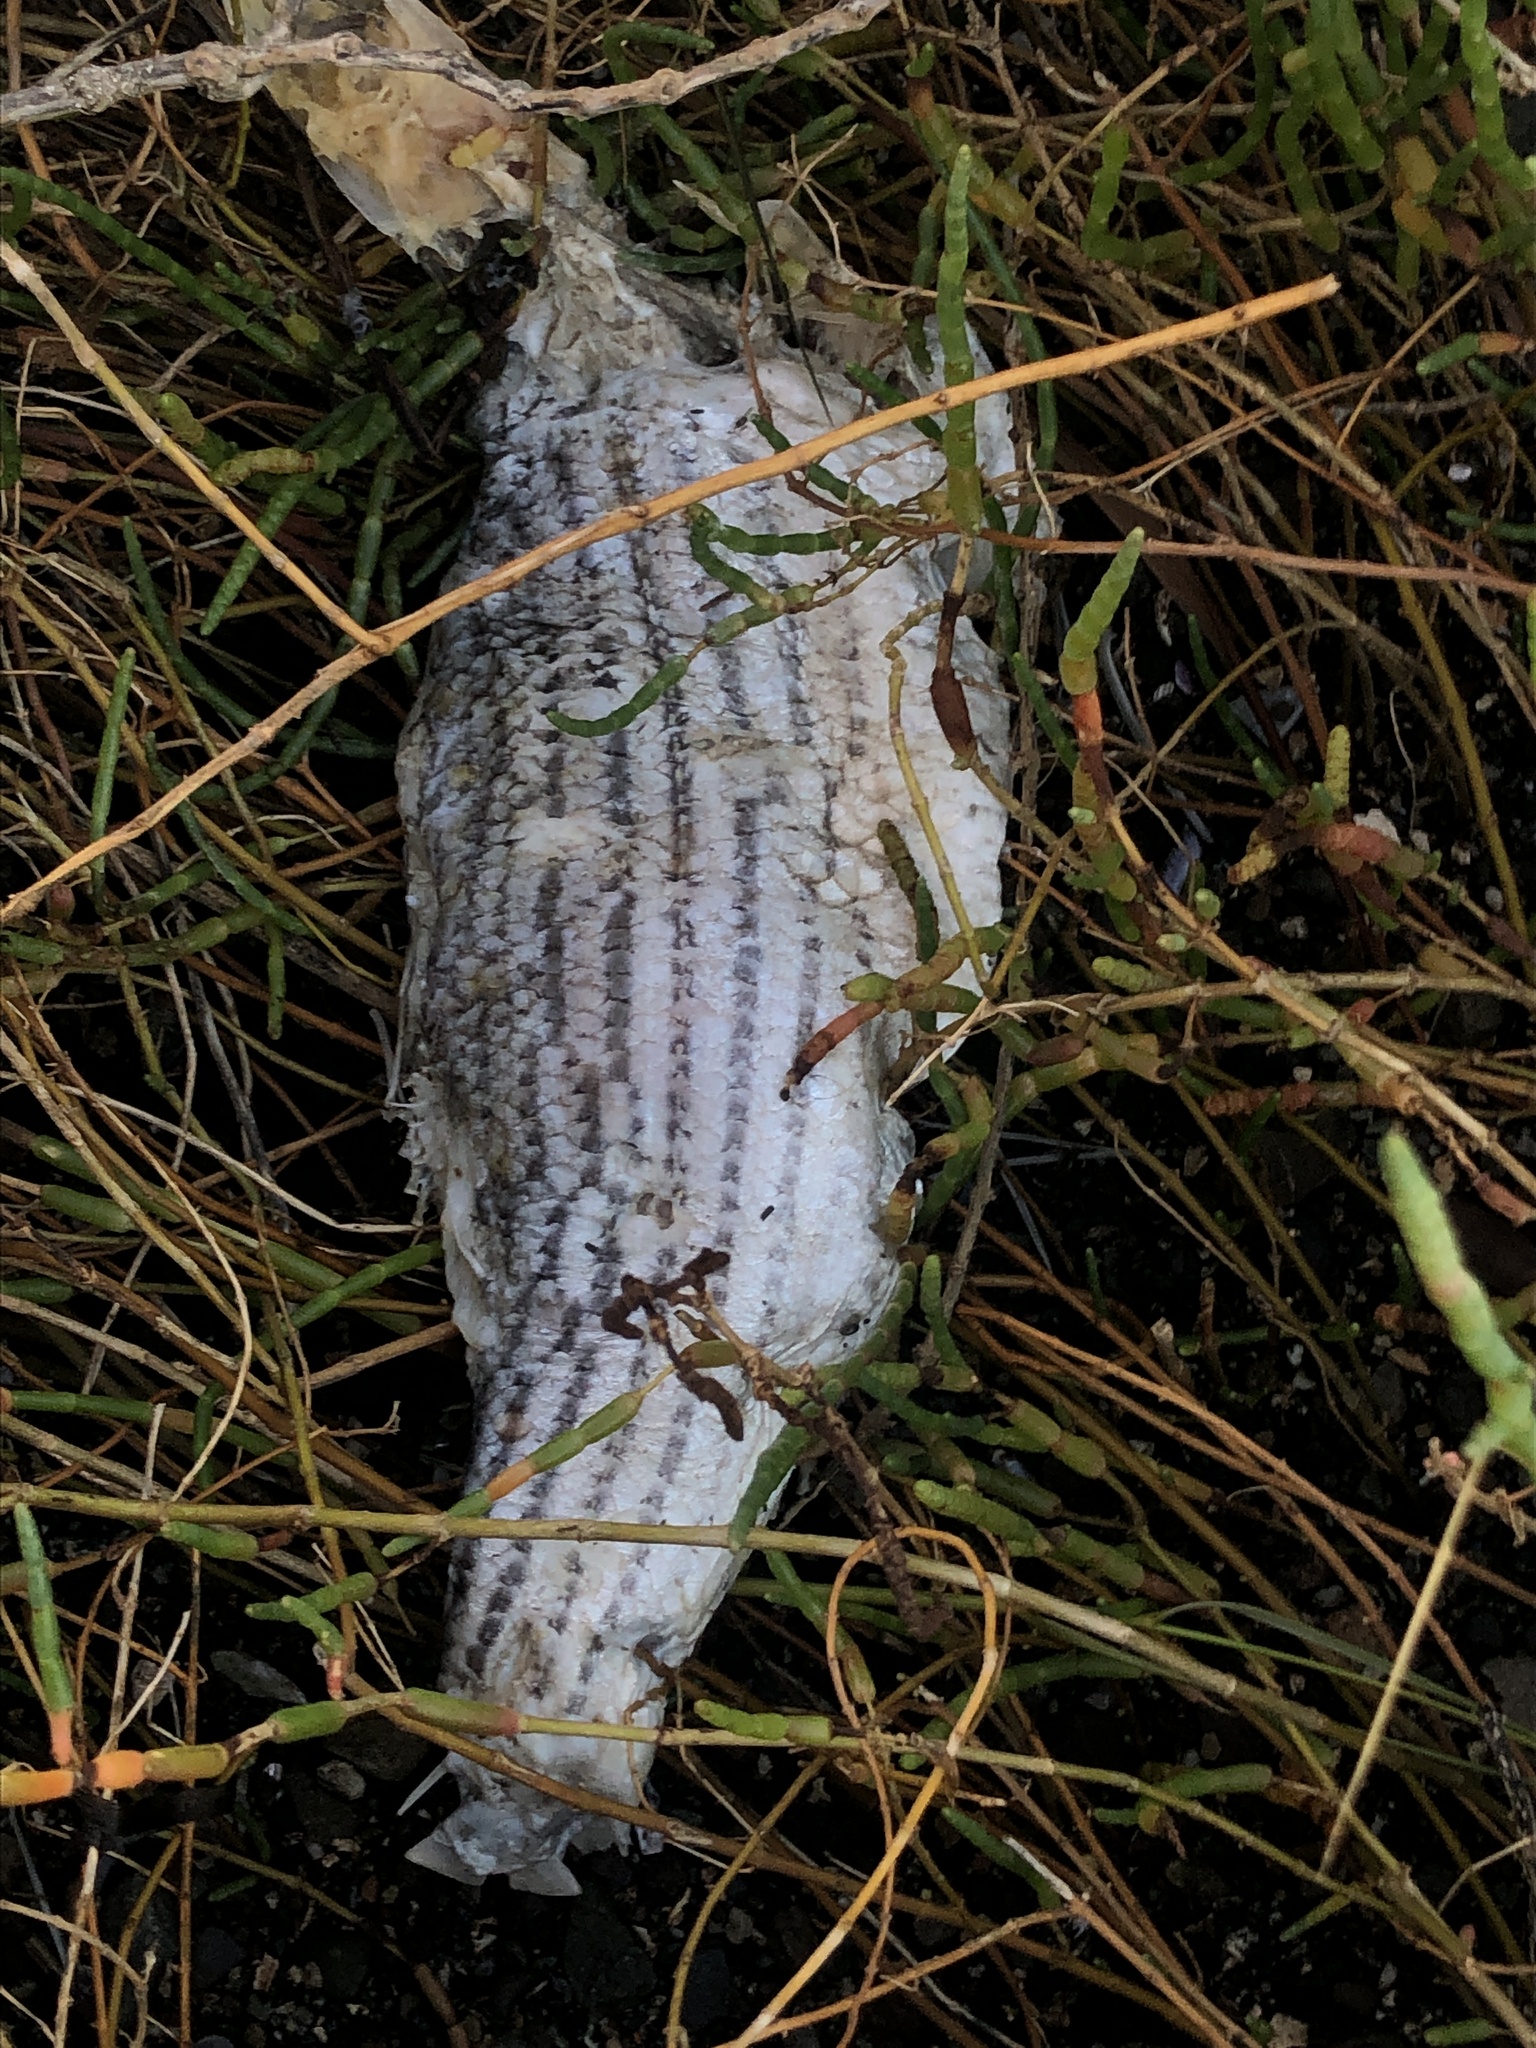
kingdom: Animalia
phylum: Chordata
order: Perciformes
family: Moronidae
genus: Morone
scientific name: Morone saxatilis
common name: Striped bass
